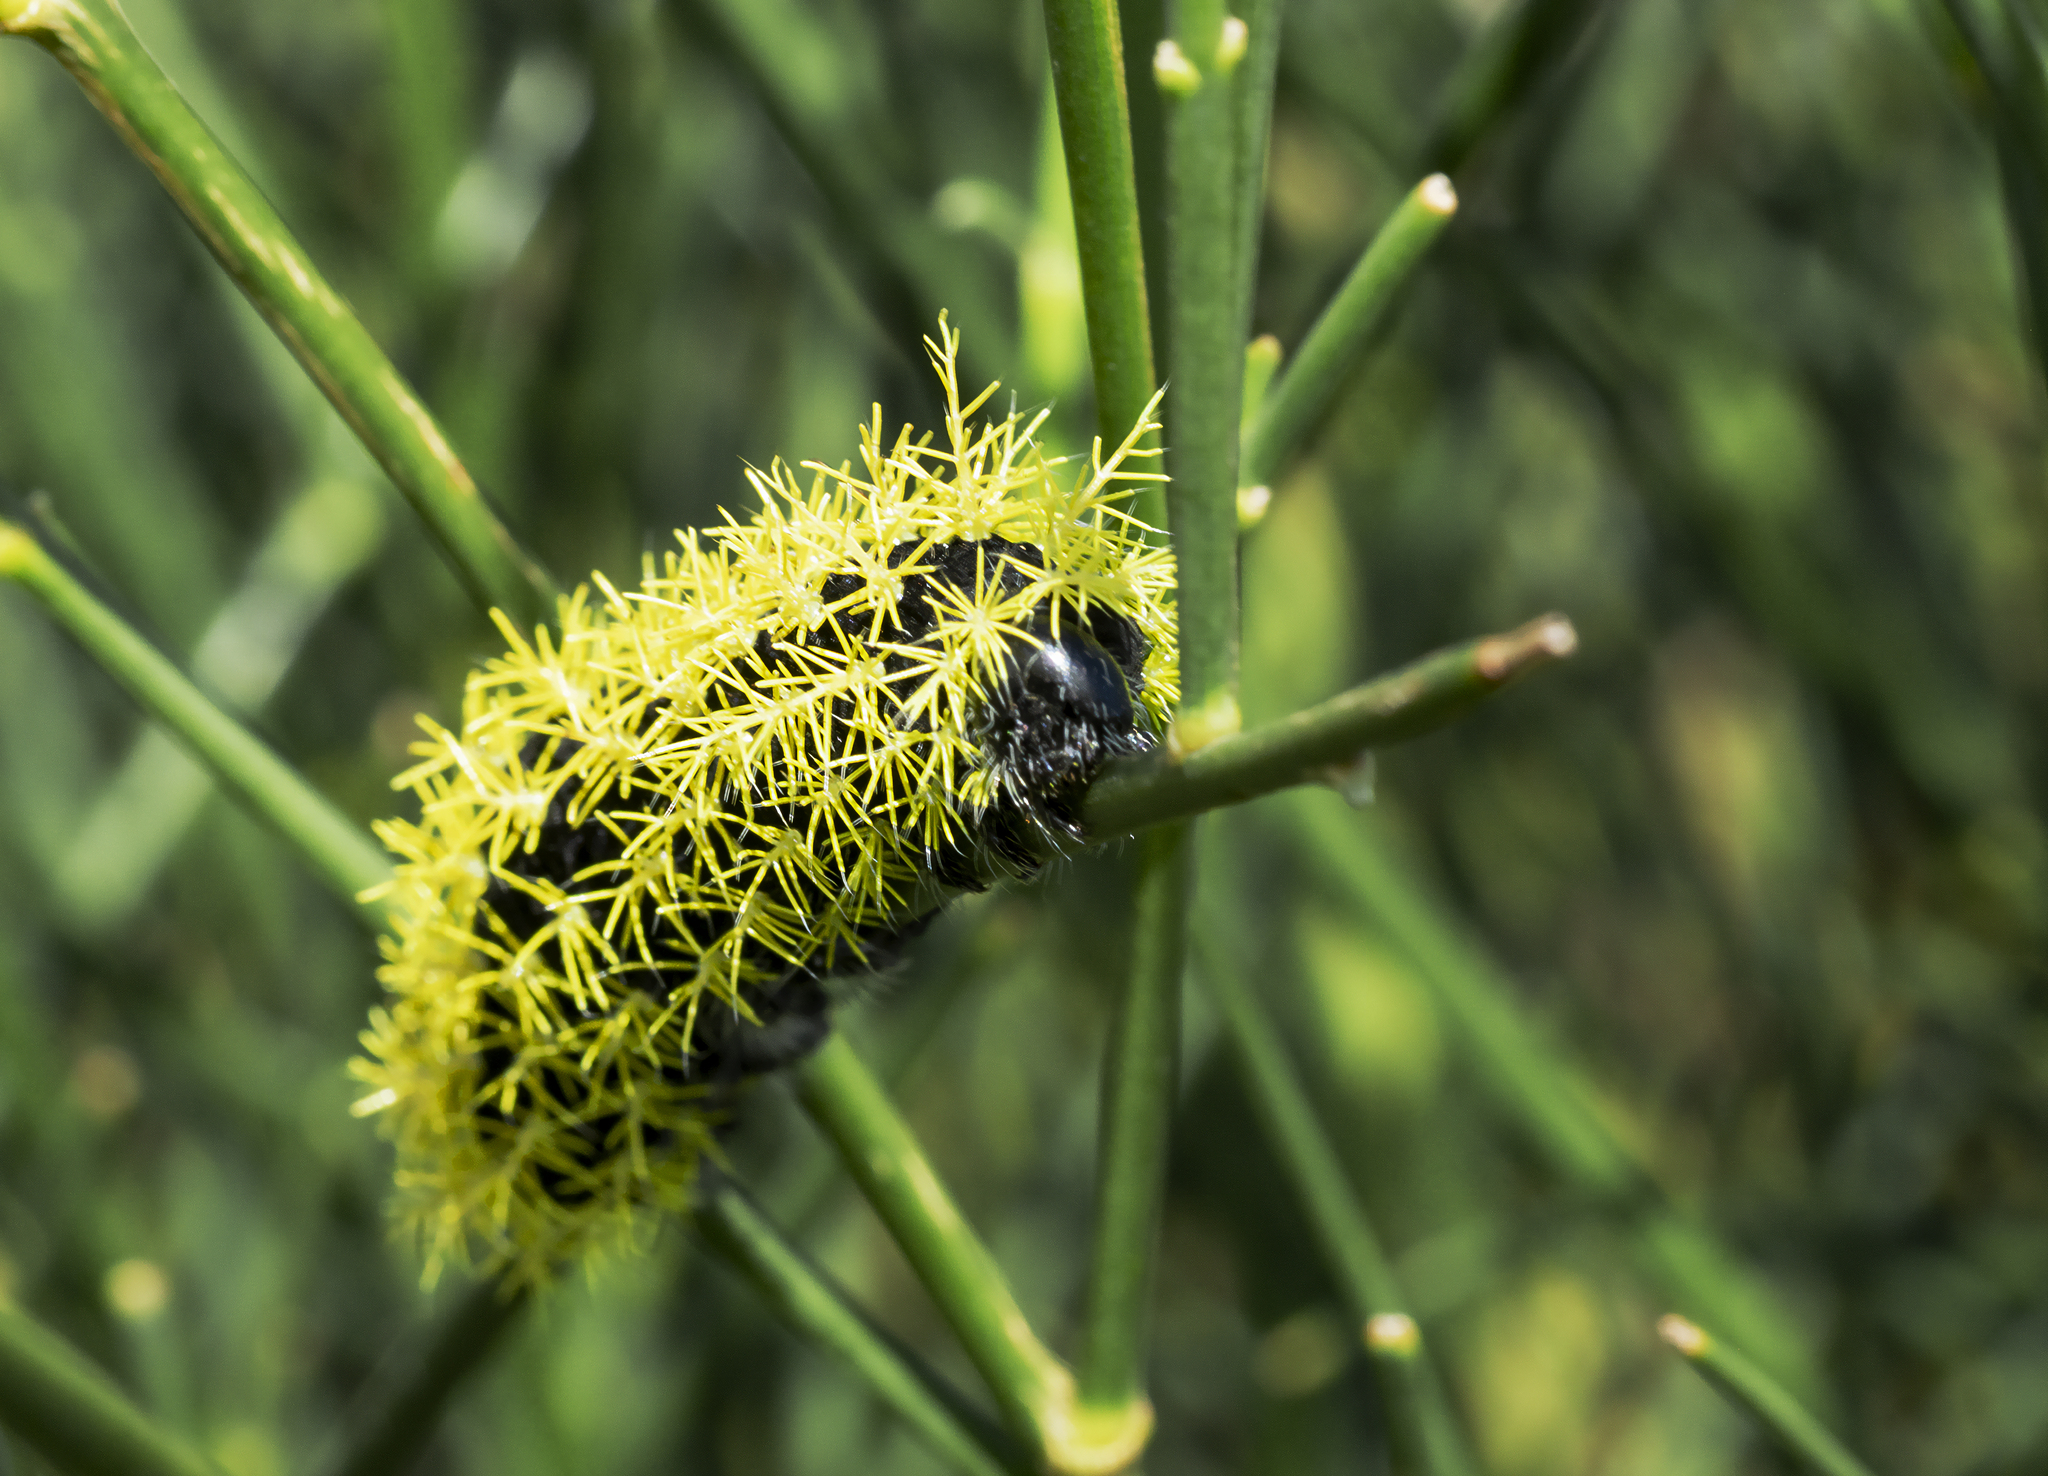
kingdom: Animalia
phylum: Arthropoda
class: Insecta
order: Lepidoptera
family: Saturniidae
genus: Leucanella
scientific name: Leucanella viridescens
